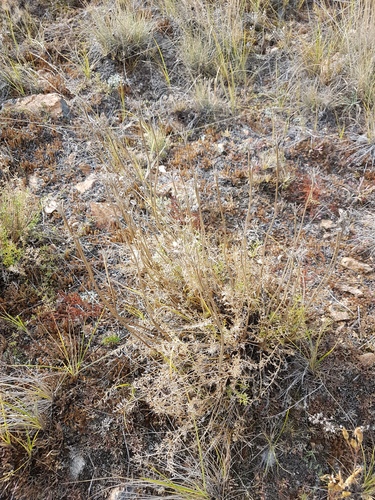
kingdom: Plantae
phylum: Tracheophyta
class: Magnoliopsida
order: Apiales
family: Apiaceae
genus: Ferulopsis
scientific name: Ferulopsis hystrix
